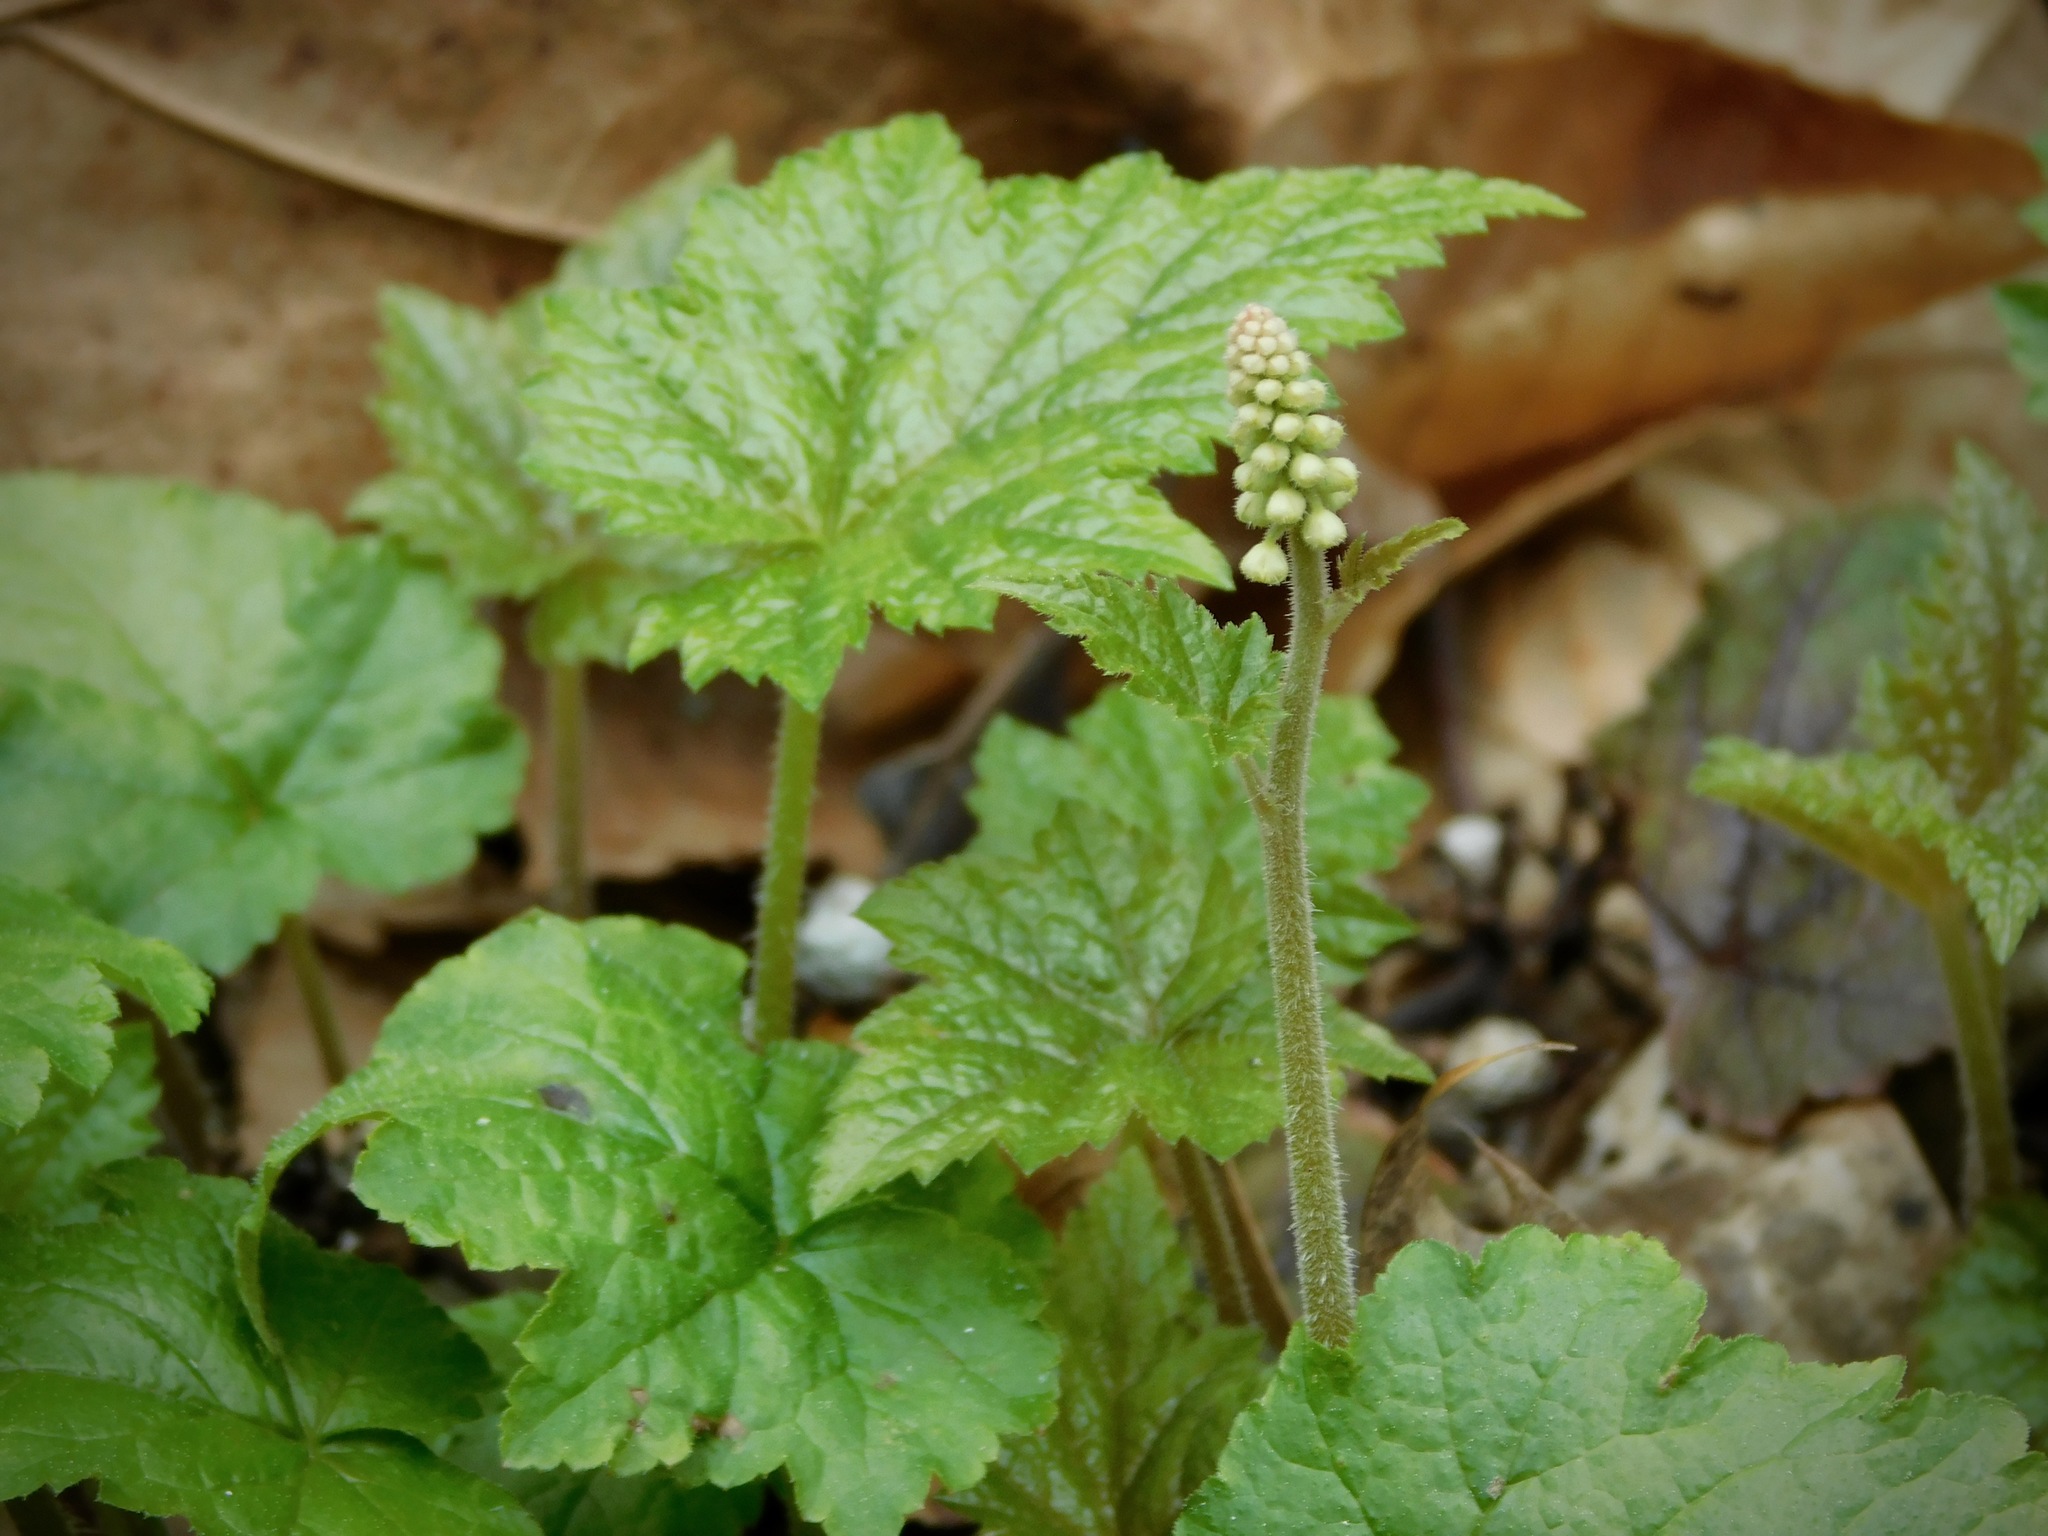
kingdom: Plantae
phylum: Tracheophyta
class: Magnoliopsida
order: Saxifragales
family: Saxifragaceae
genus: Tiarella
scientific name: Tiarella austrina
